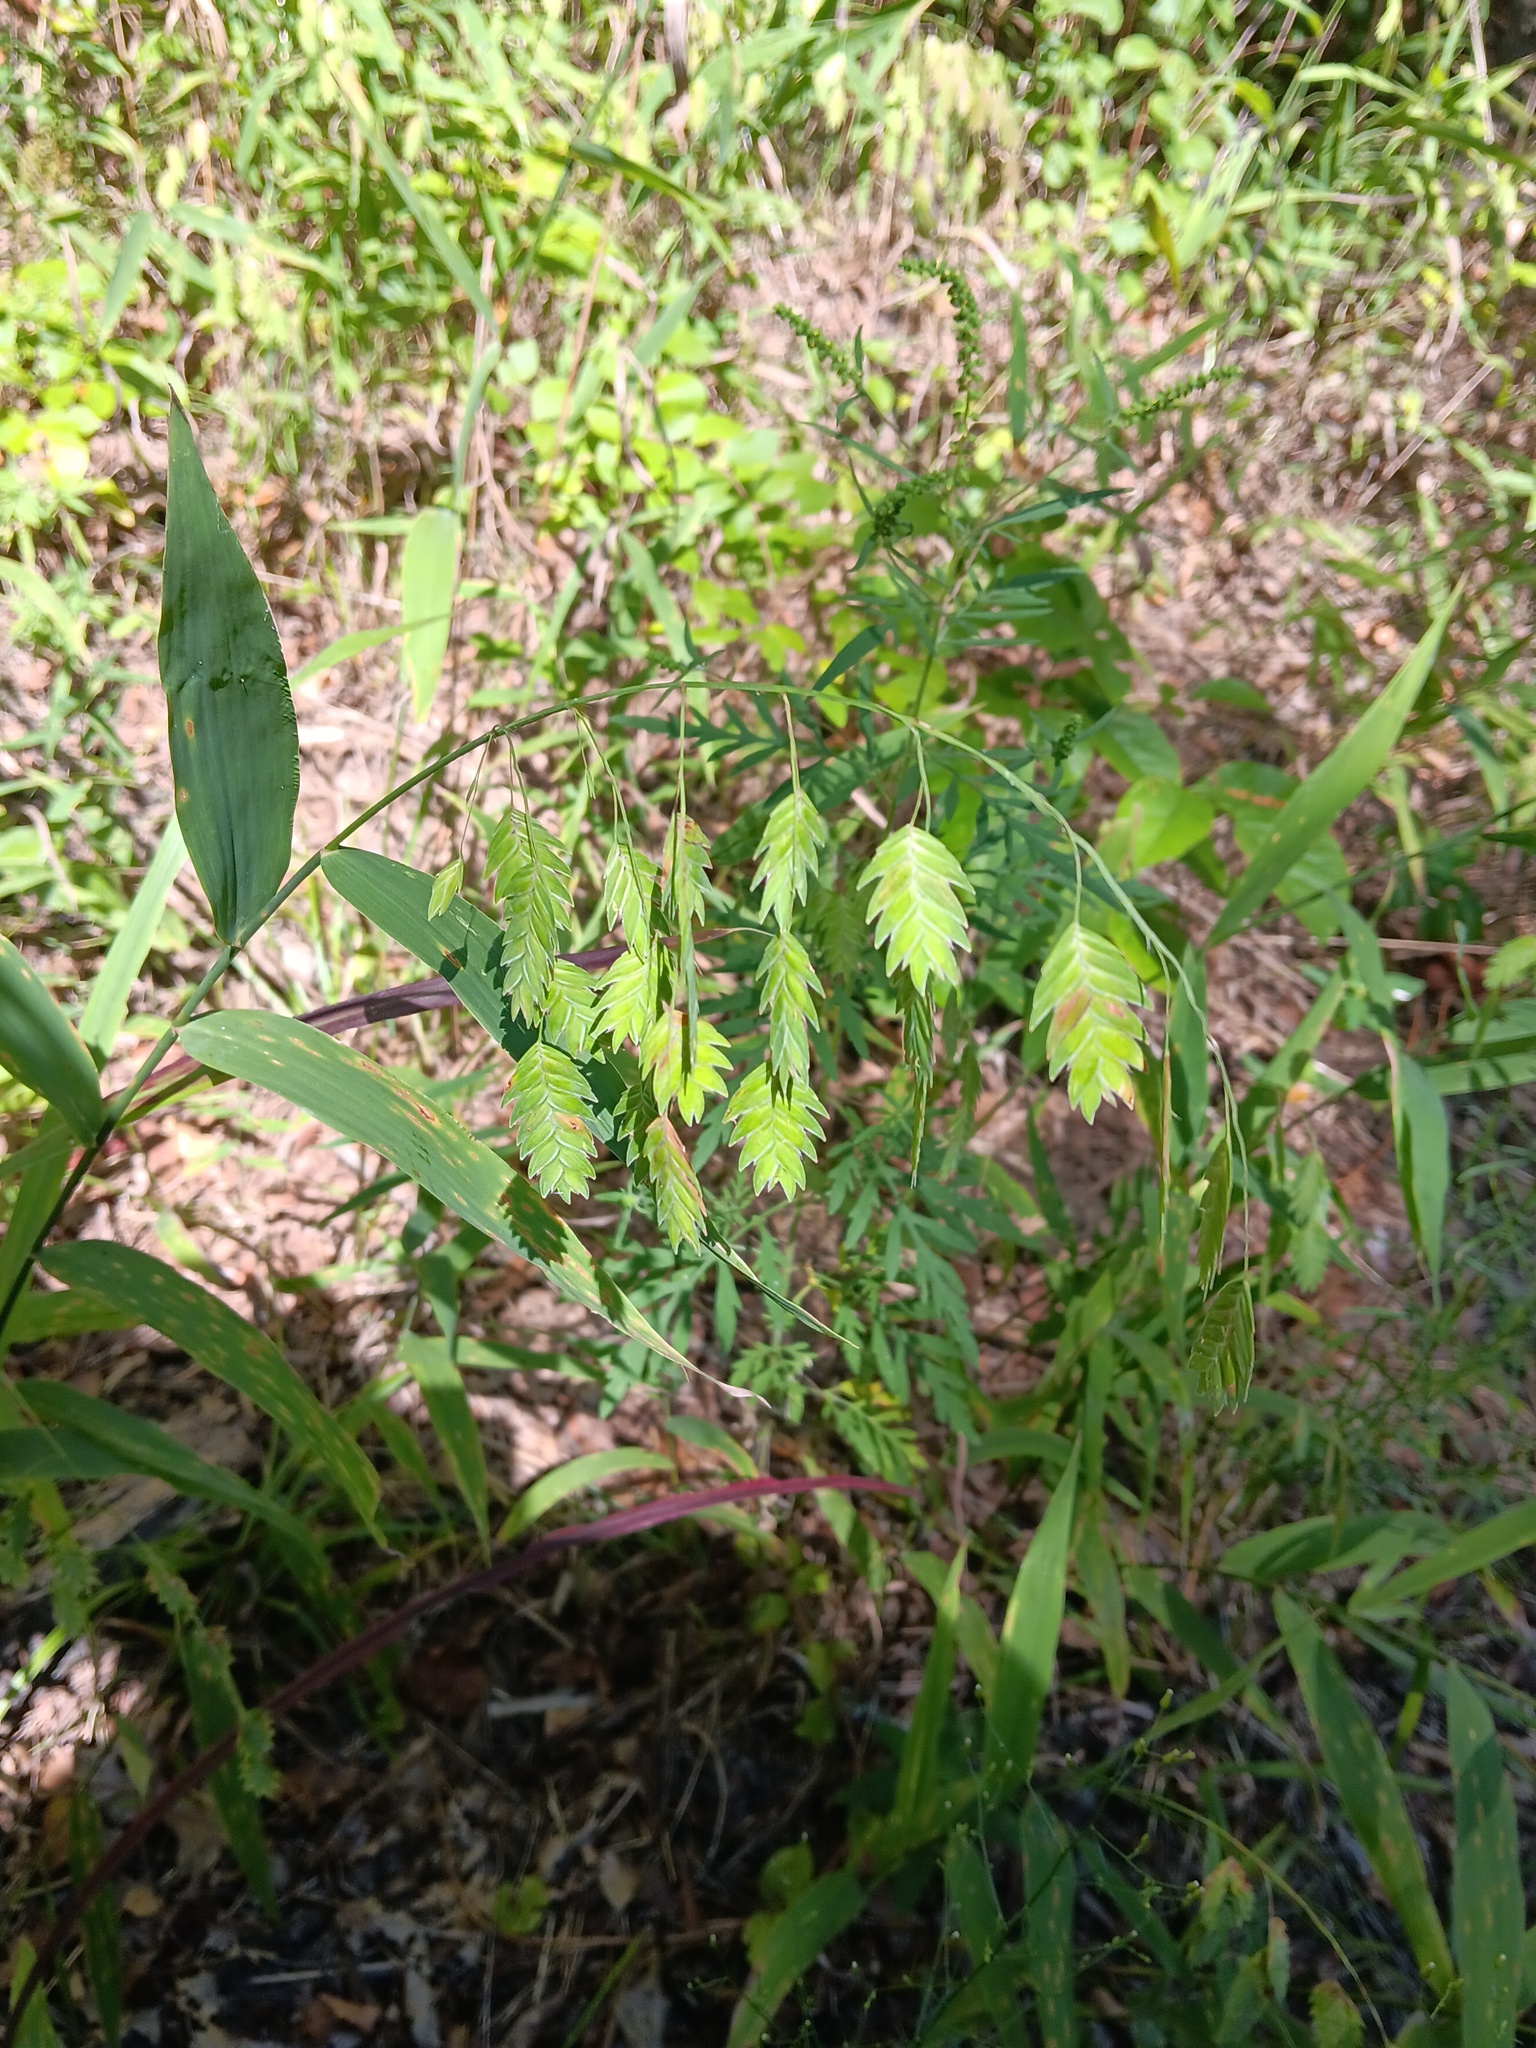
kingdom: Plantae
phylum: Tracheophyta
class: Liliopsida
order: Poales
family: Poaceae
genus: Chasmanthium
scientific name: Chasmanthium latifolium
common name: Broad-leaved chasmanthium
